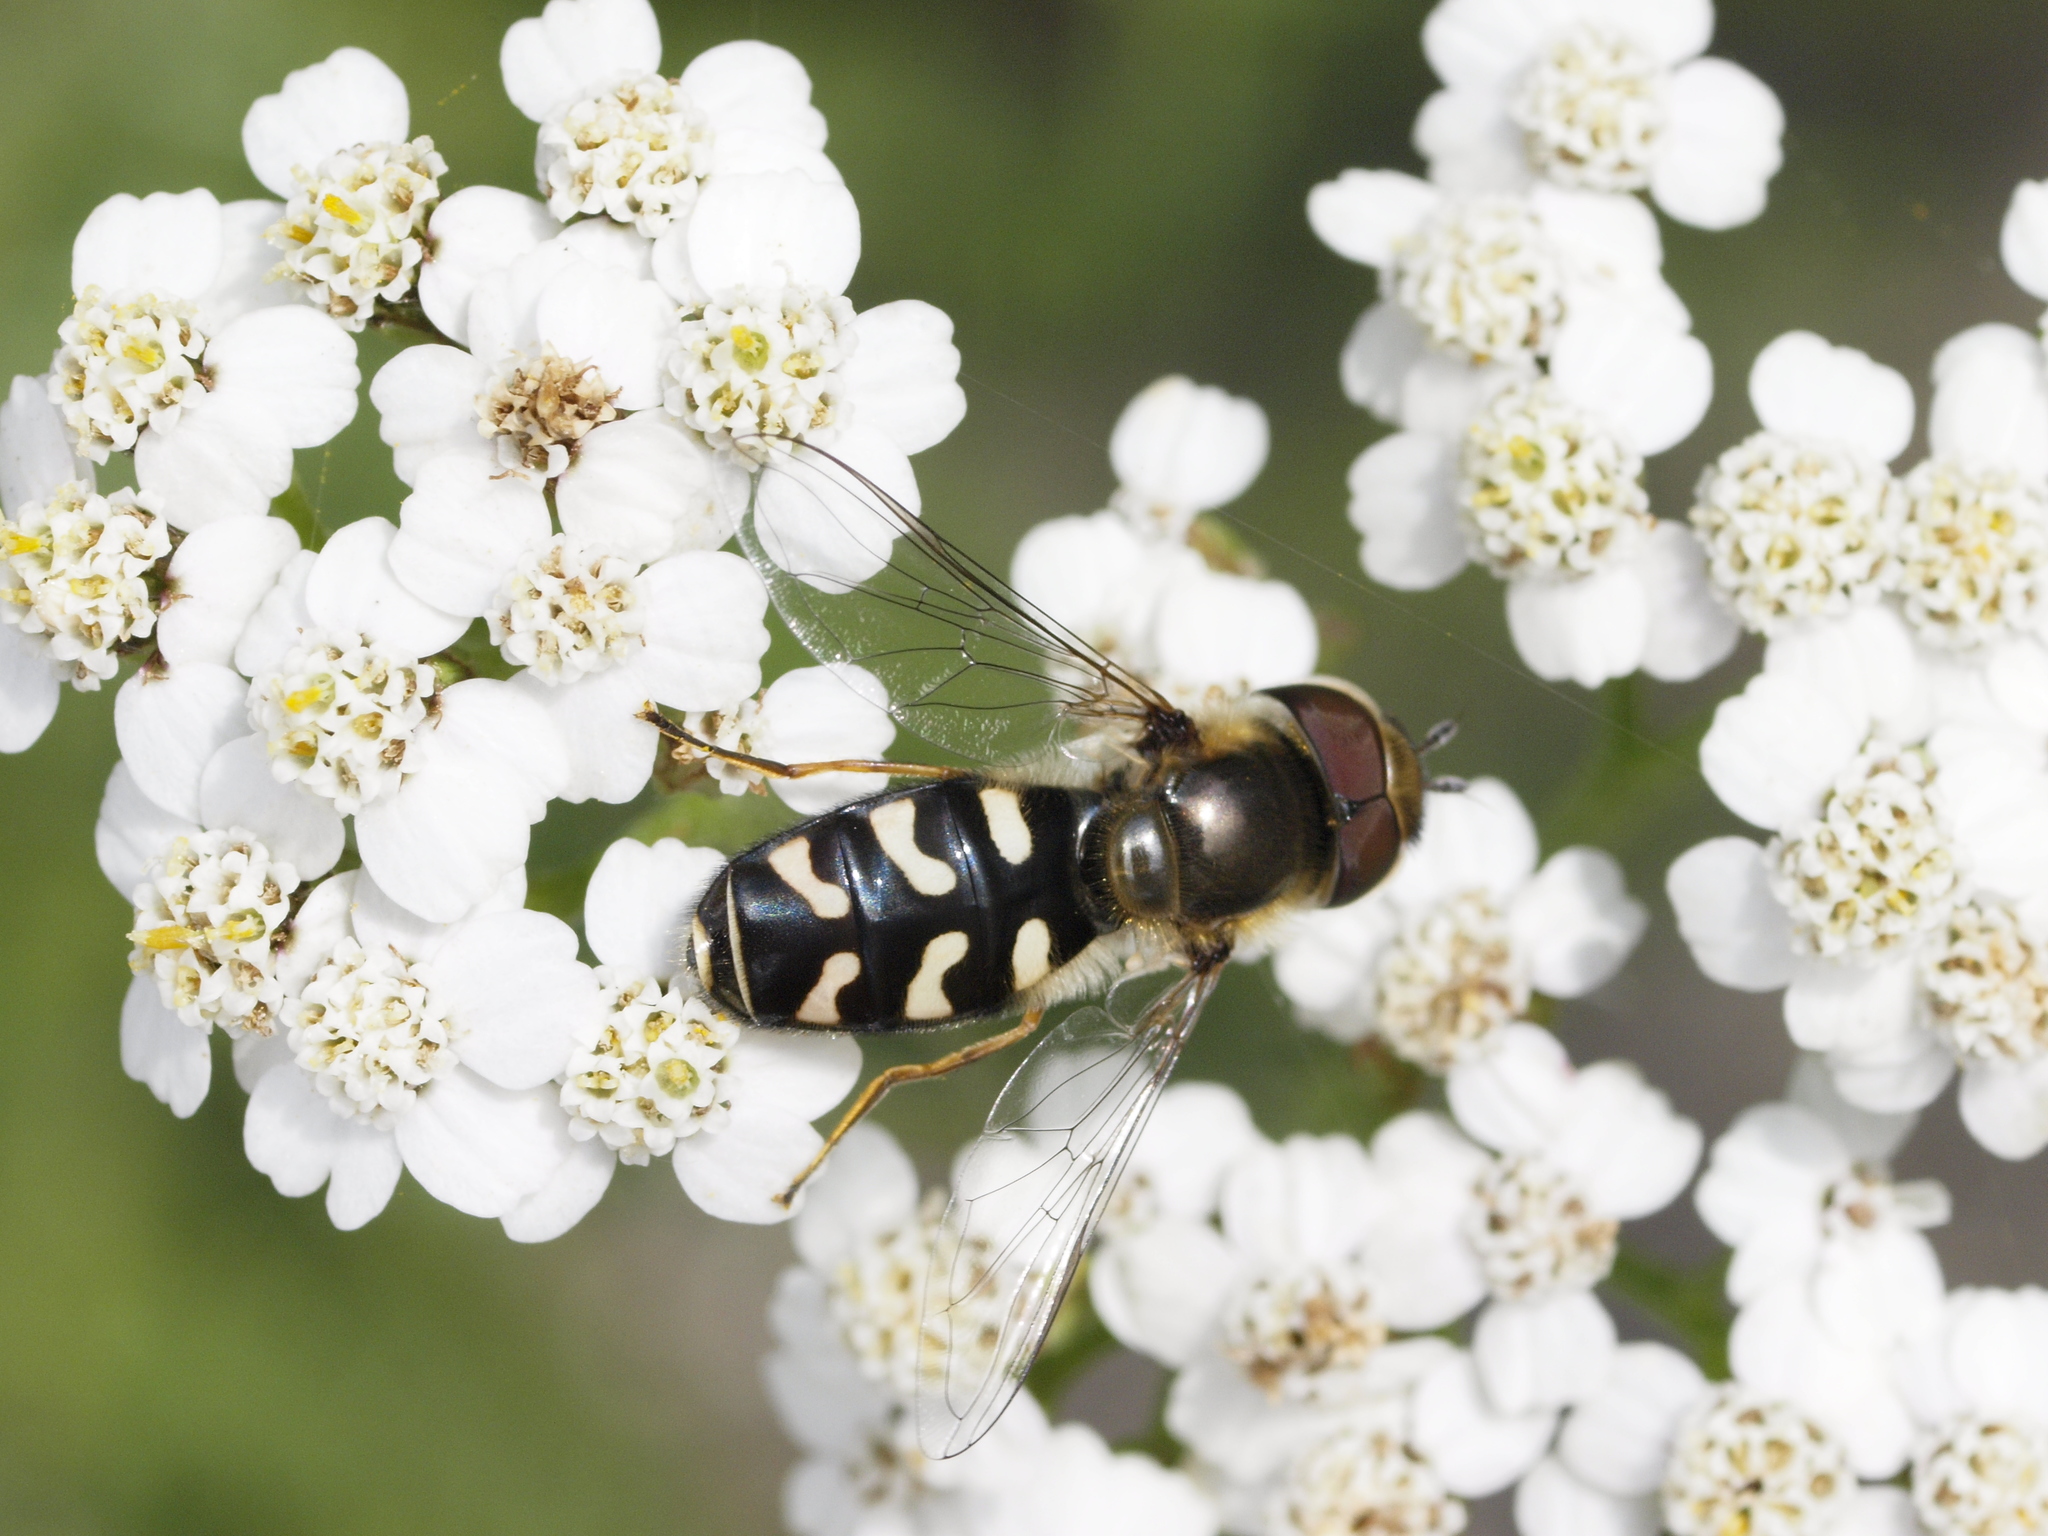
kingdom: Animalia
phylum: Arthropoda
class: Insecta
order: Diptera
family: Syrphidae
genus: Scaeva
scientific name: Scaeva pyrastri
